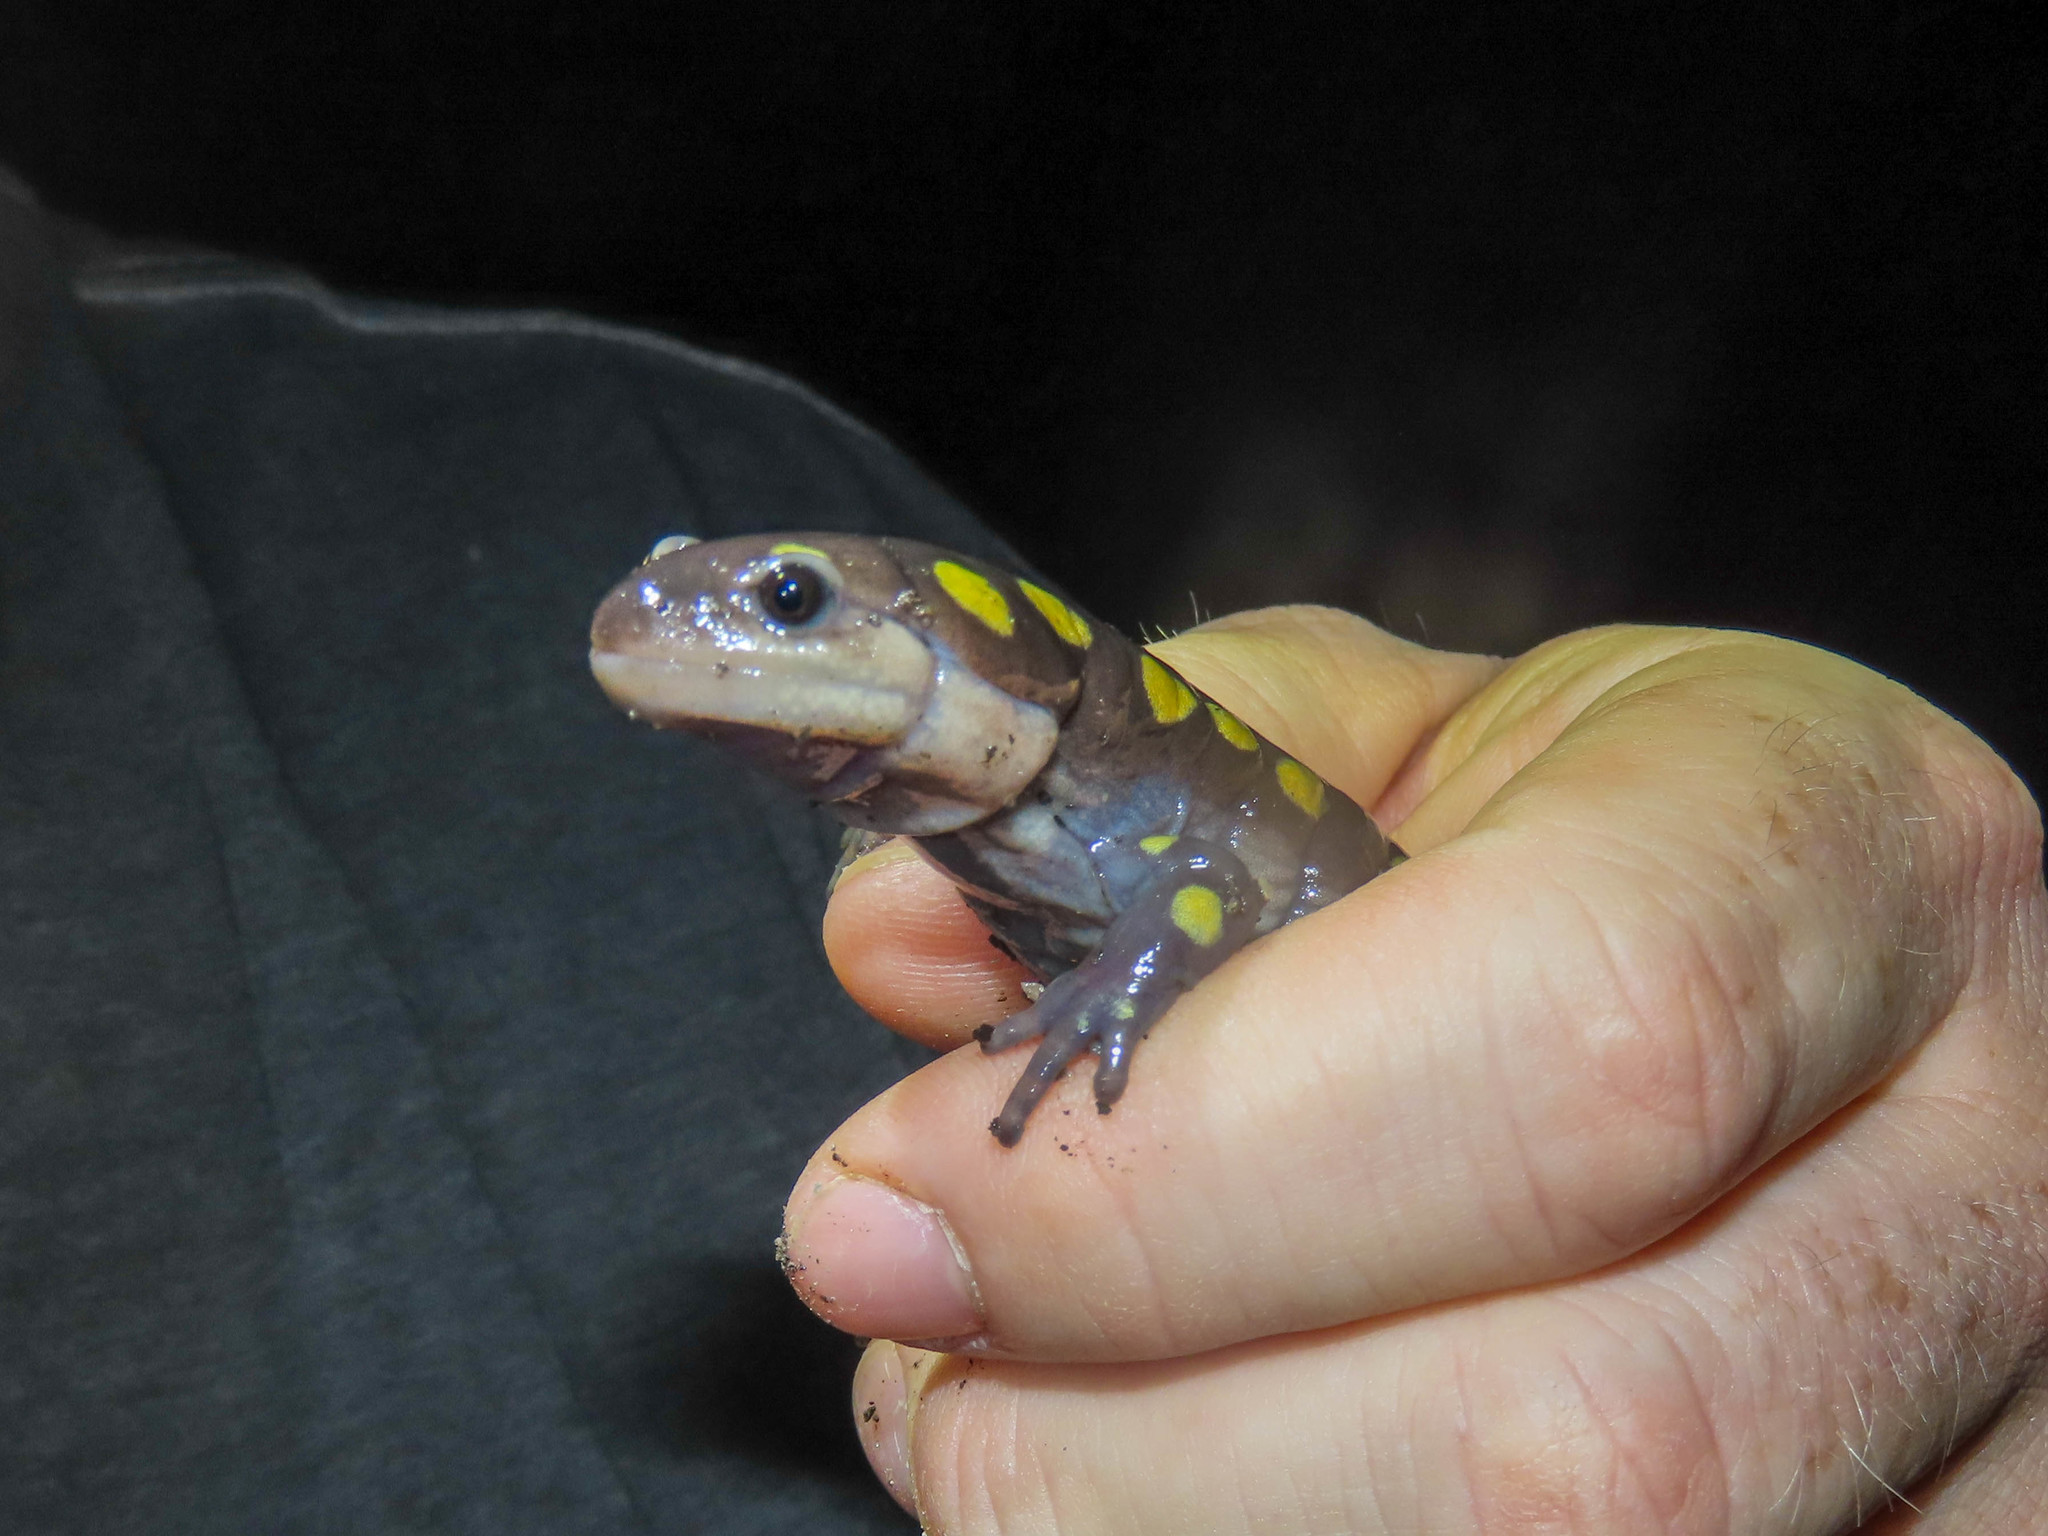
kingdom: Animalia
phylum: Chordata
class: Amphibia
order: Caudata
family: Ambystomatidae
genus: Ambystoma
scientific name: Ambystoma maculatum
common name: Spotted salamander
